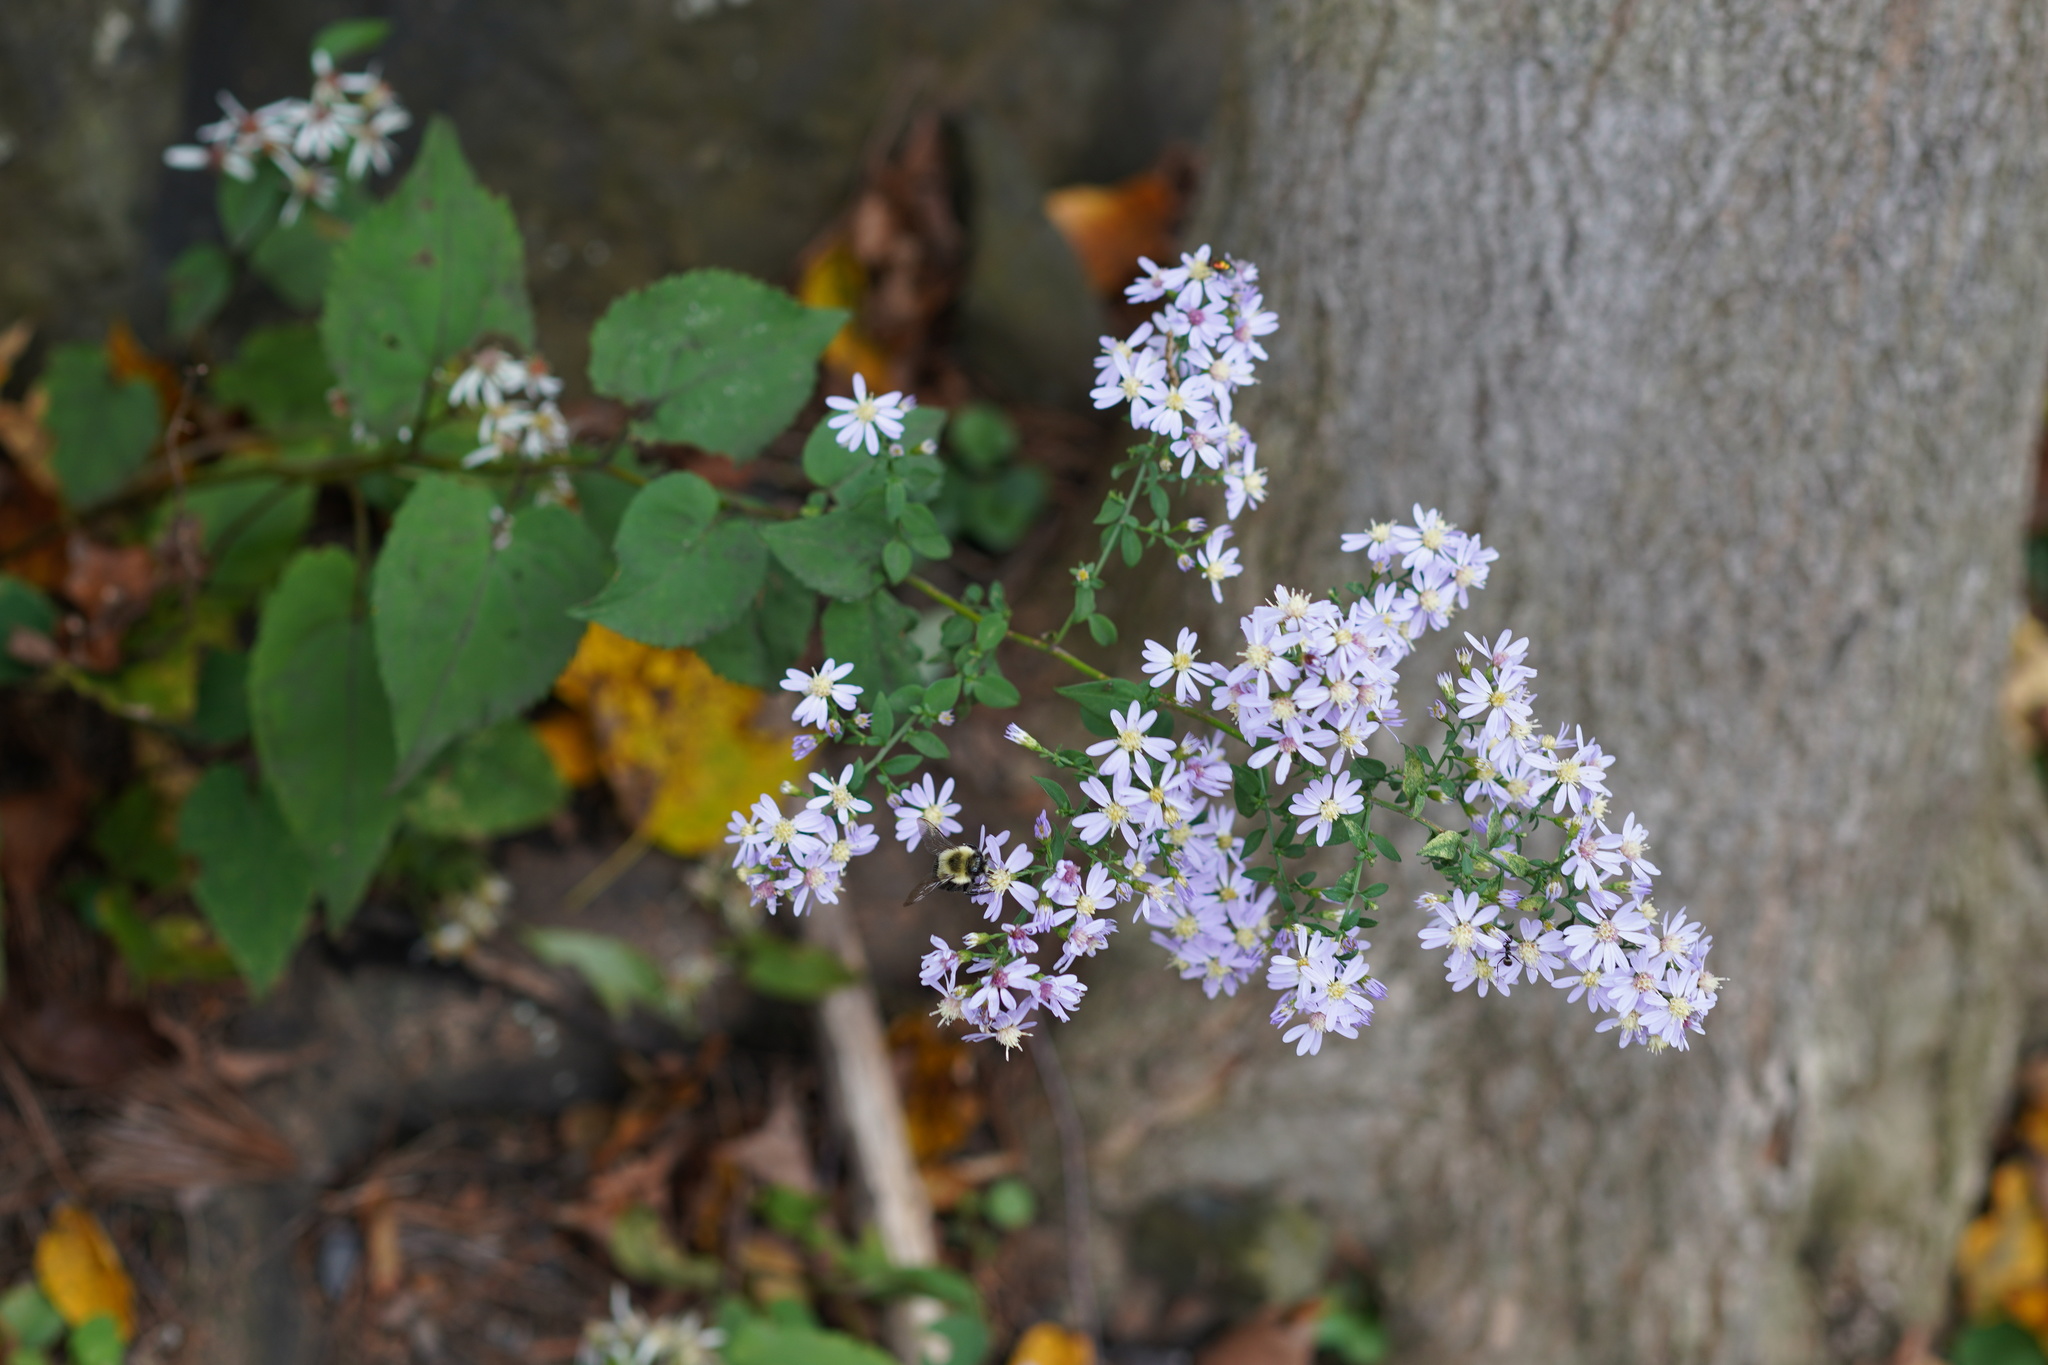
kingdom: Plantae
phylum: Tracheophyta
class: Magnoliopsida
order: Asterales
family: Asteraceae
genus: Symphyotrichum
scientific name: Symphyotrichum cordifolium
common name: Beeweed
